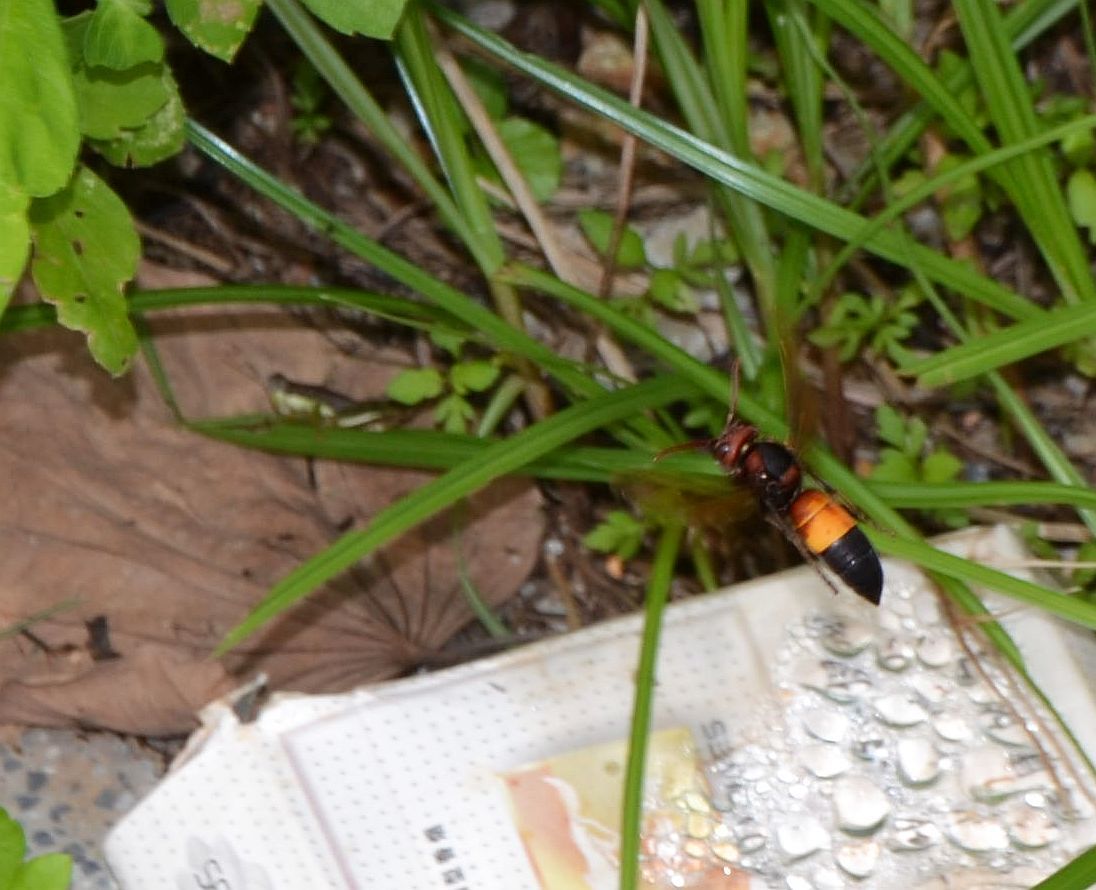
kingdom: Animalia
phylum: Arthropoda
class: Insecta
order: Hymenoptera
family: Vespidae
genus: Vespa
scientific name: Vespa affinis
